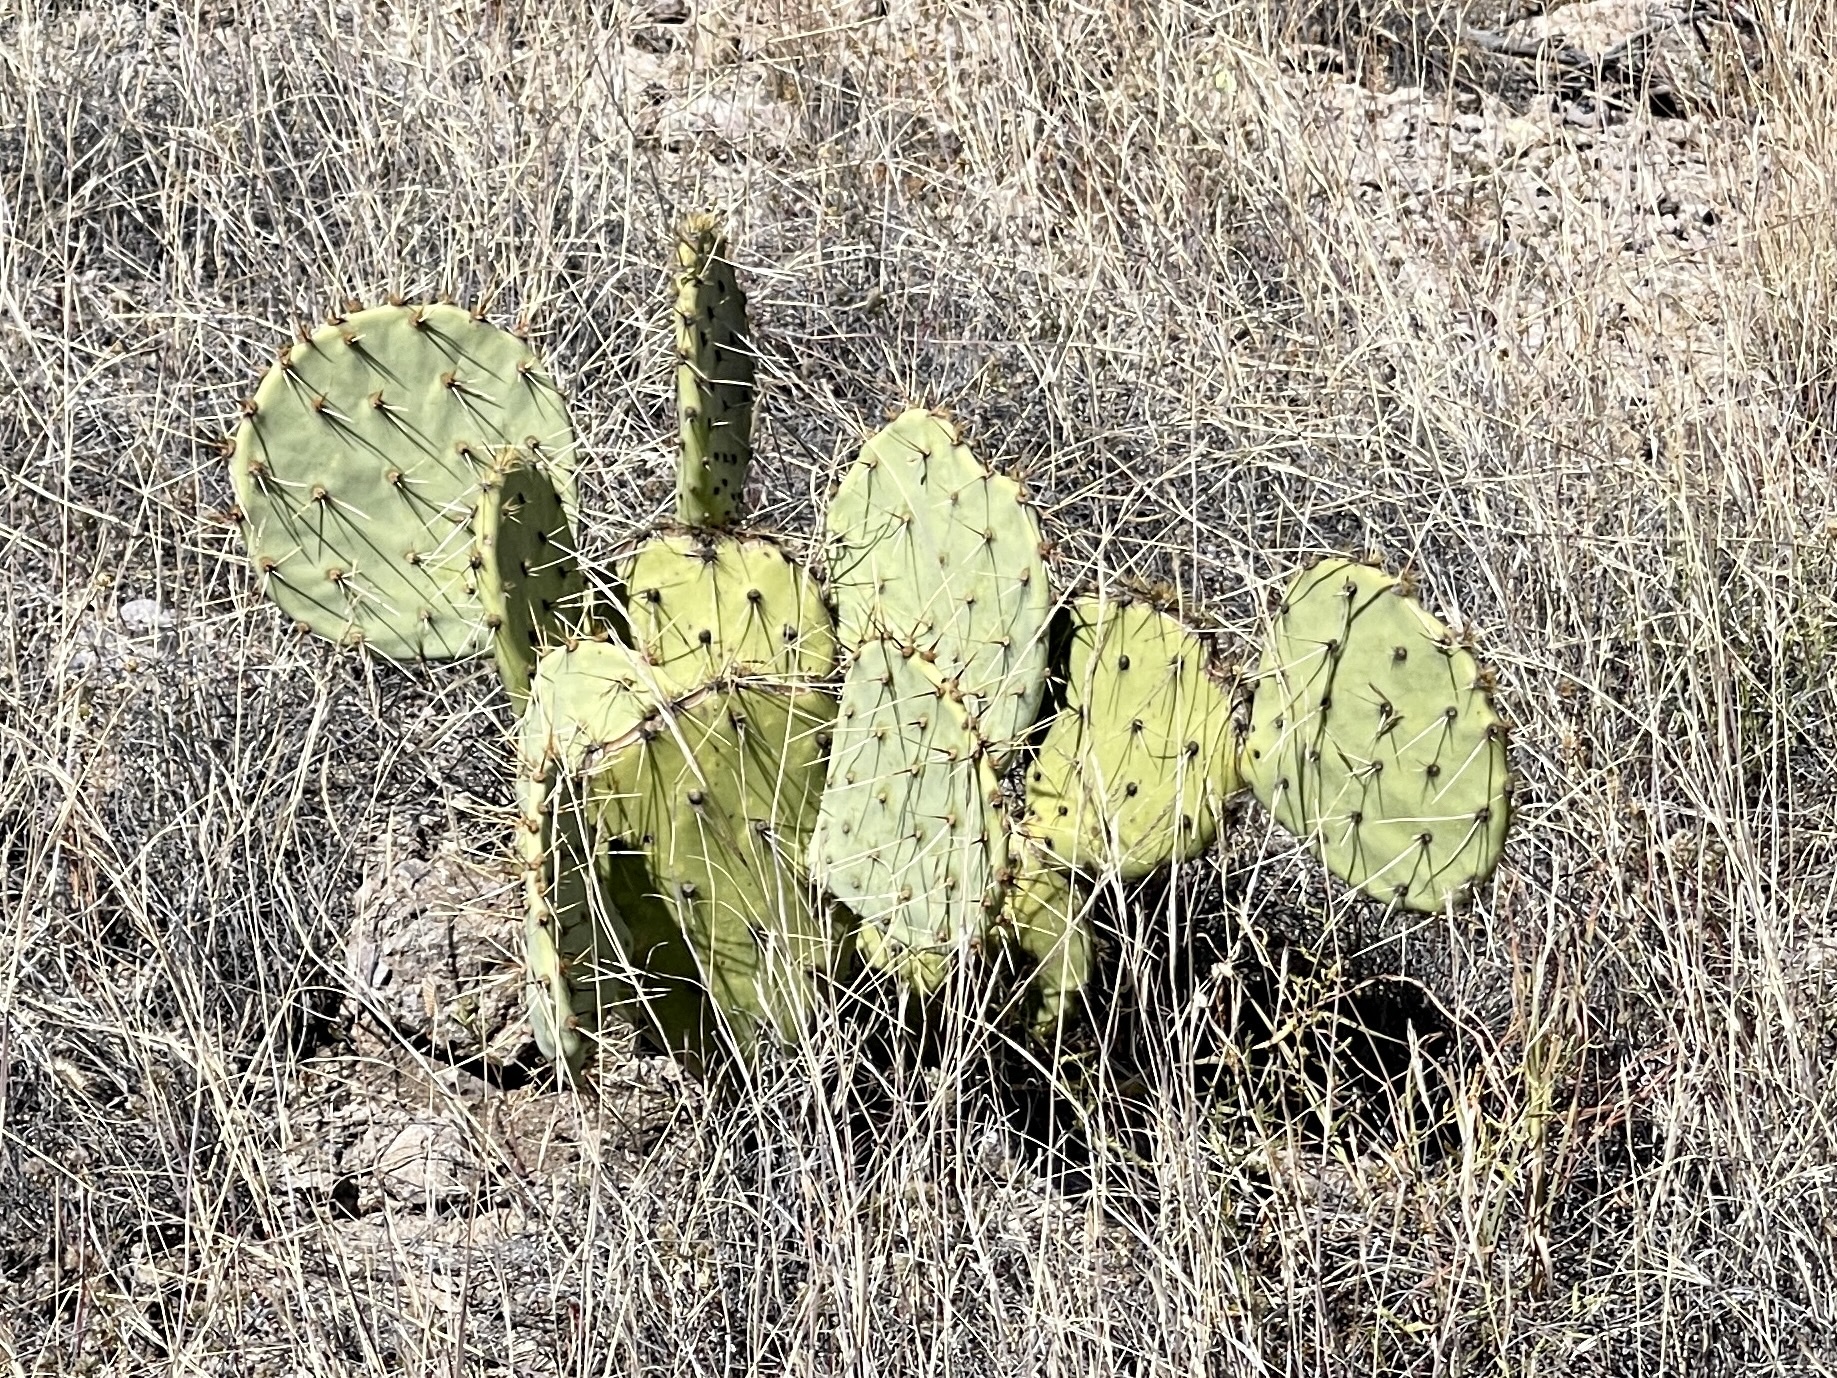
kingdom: Plantae
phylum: Tracheophyta
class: Magnoliopsida
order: Caryophyllales
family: Cactaceae
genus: Opuntia
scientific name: Opuntia engelmannii
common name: Cactus-apple
